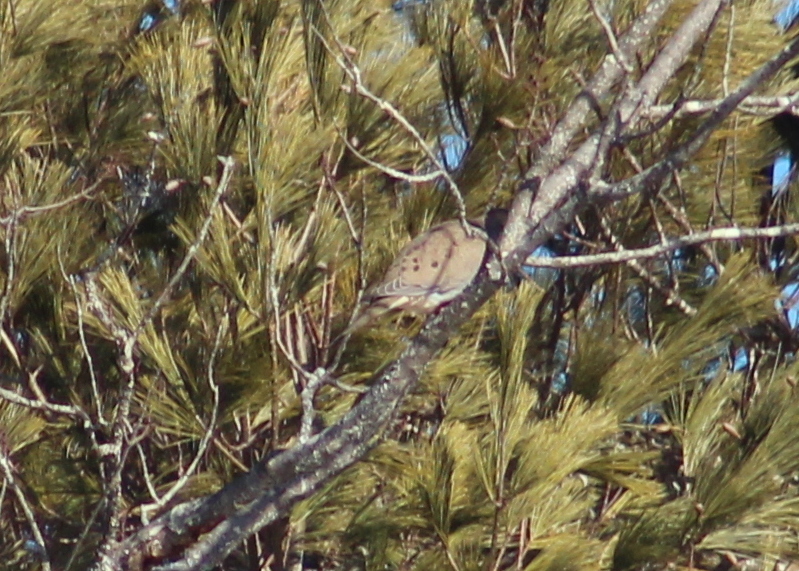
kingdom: Animalia
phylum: Chordata
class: Aves
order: Columbiformes
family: Columbidae
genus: Zenaida
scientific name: Zenaida macroura
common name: Mourning dove
